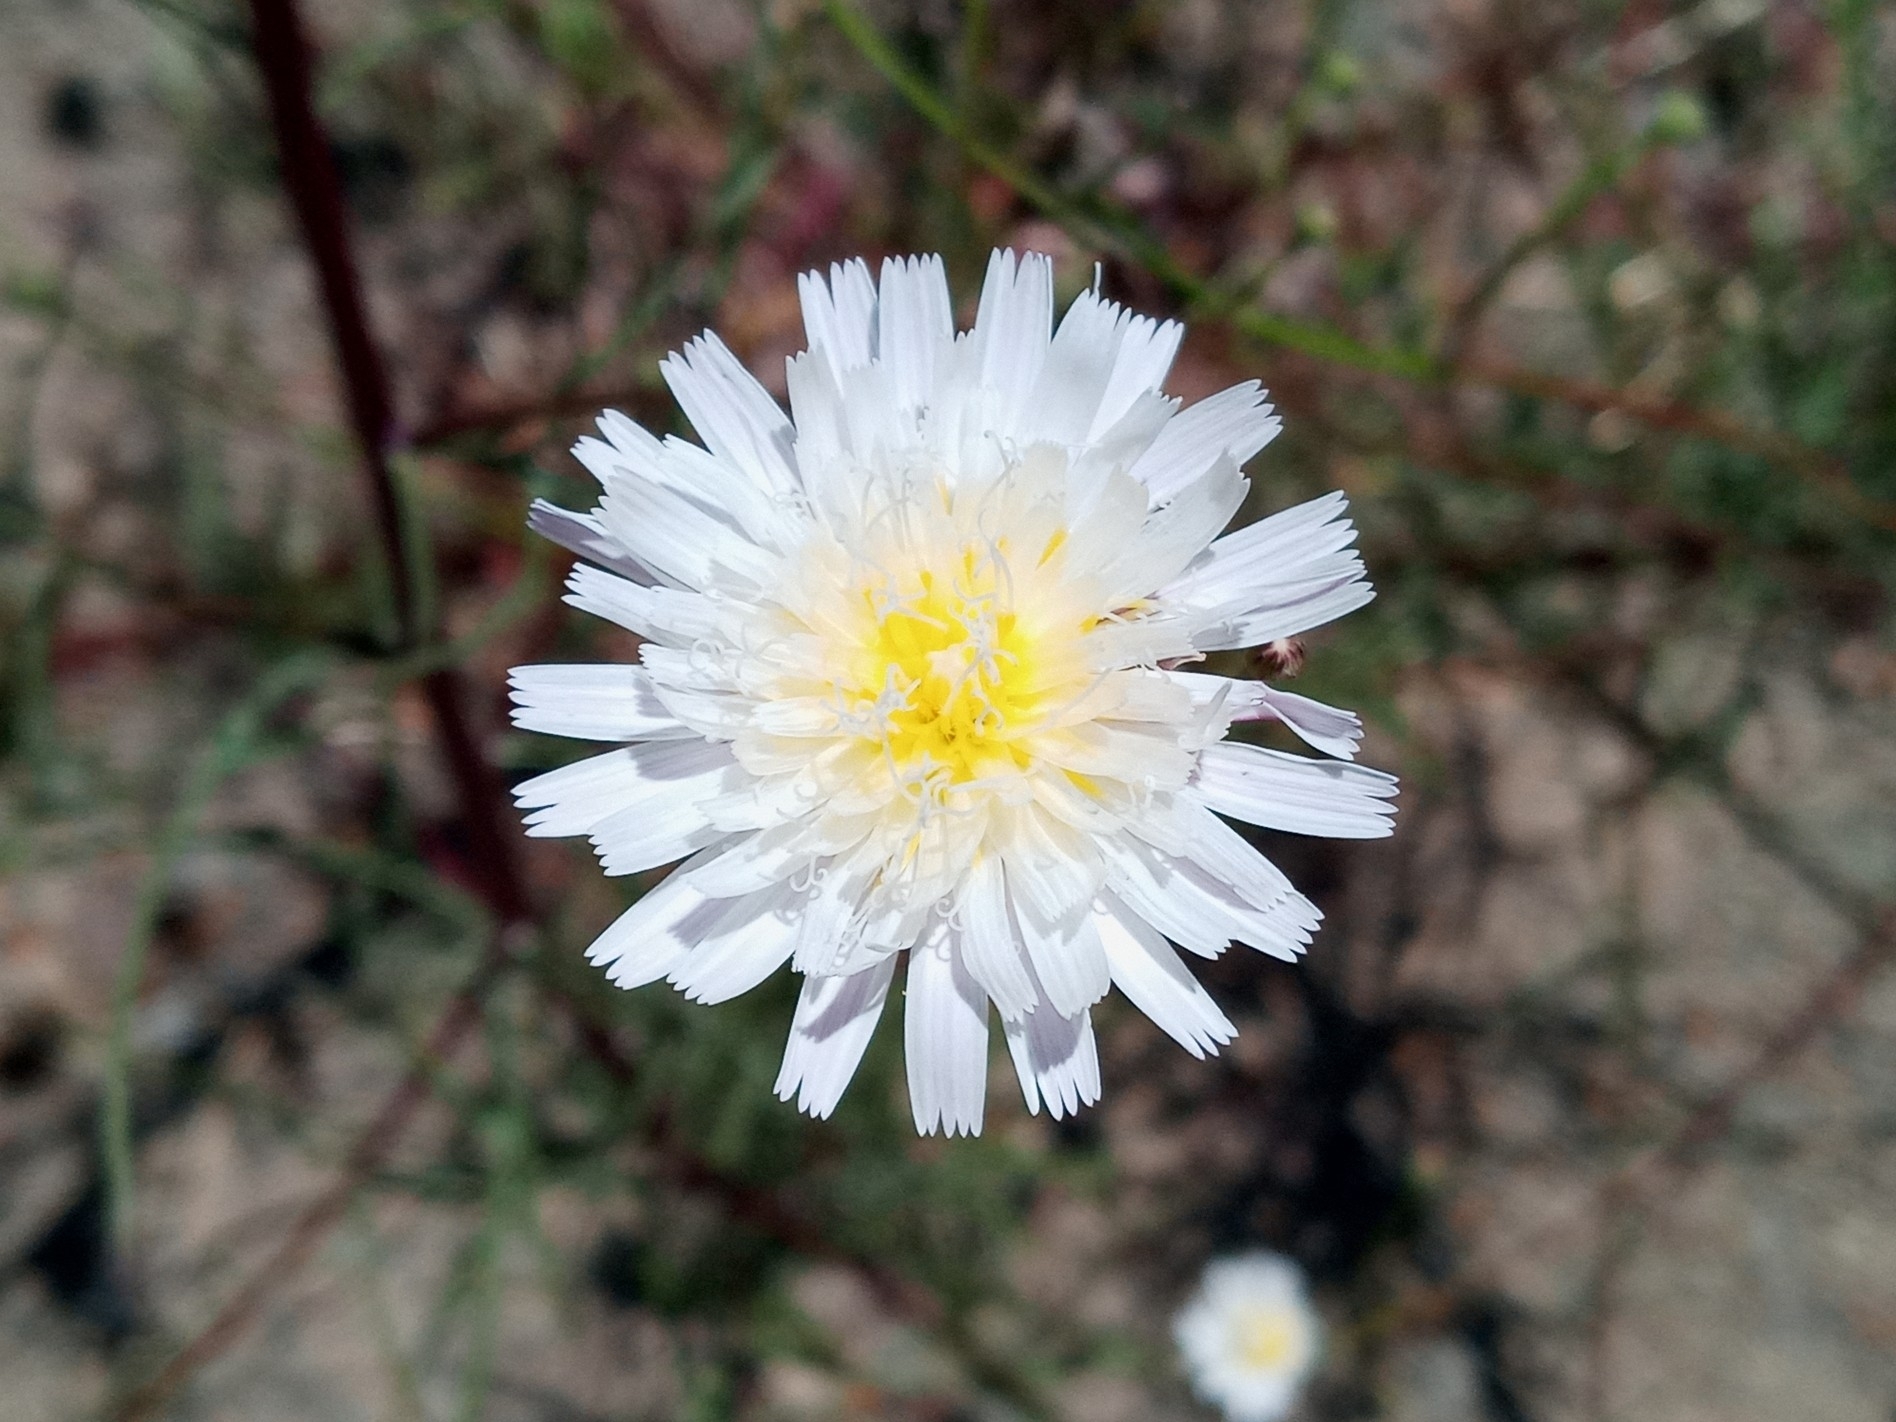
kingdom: Plantae
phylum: Tracheophyta
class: Magnoliopsida
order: Asterales
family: Asteraceae
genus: Malacothrix
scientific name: Malacothrix saxatilis
